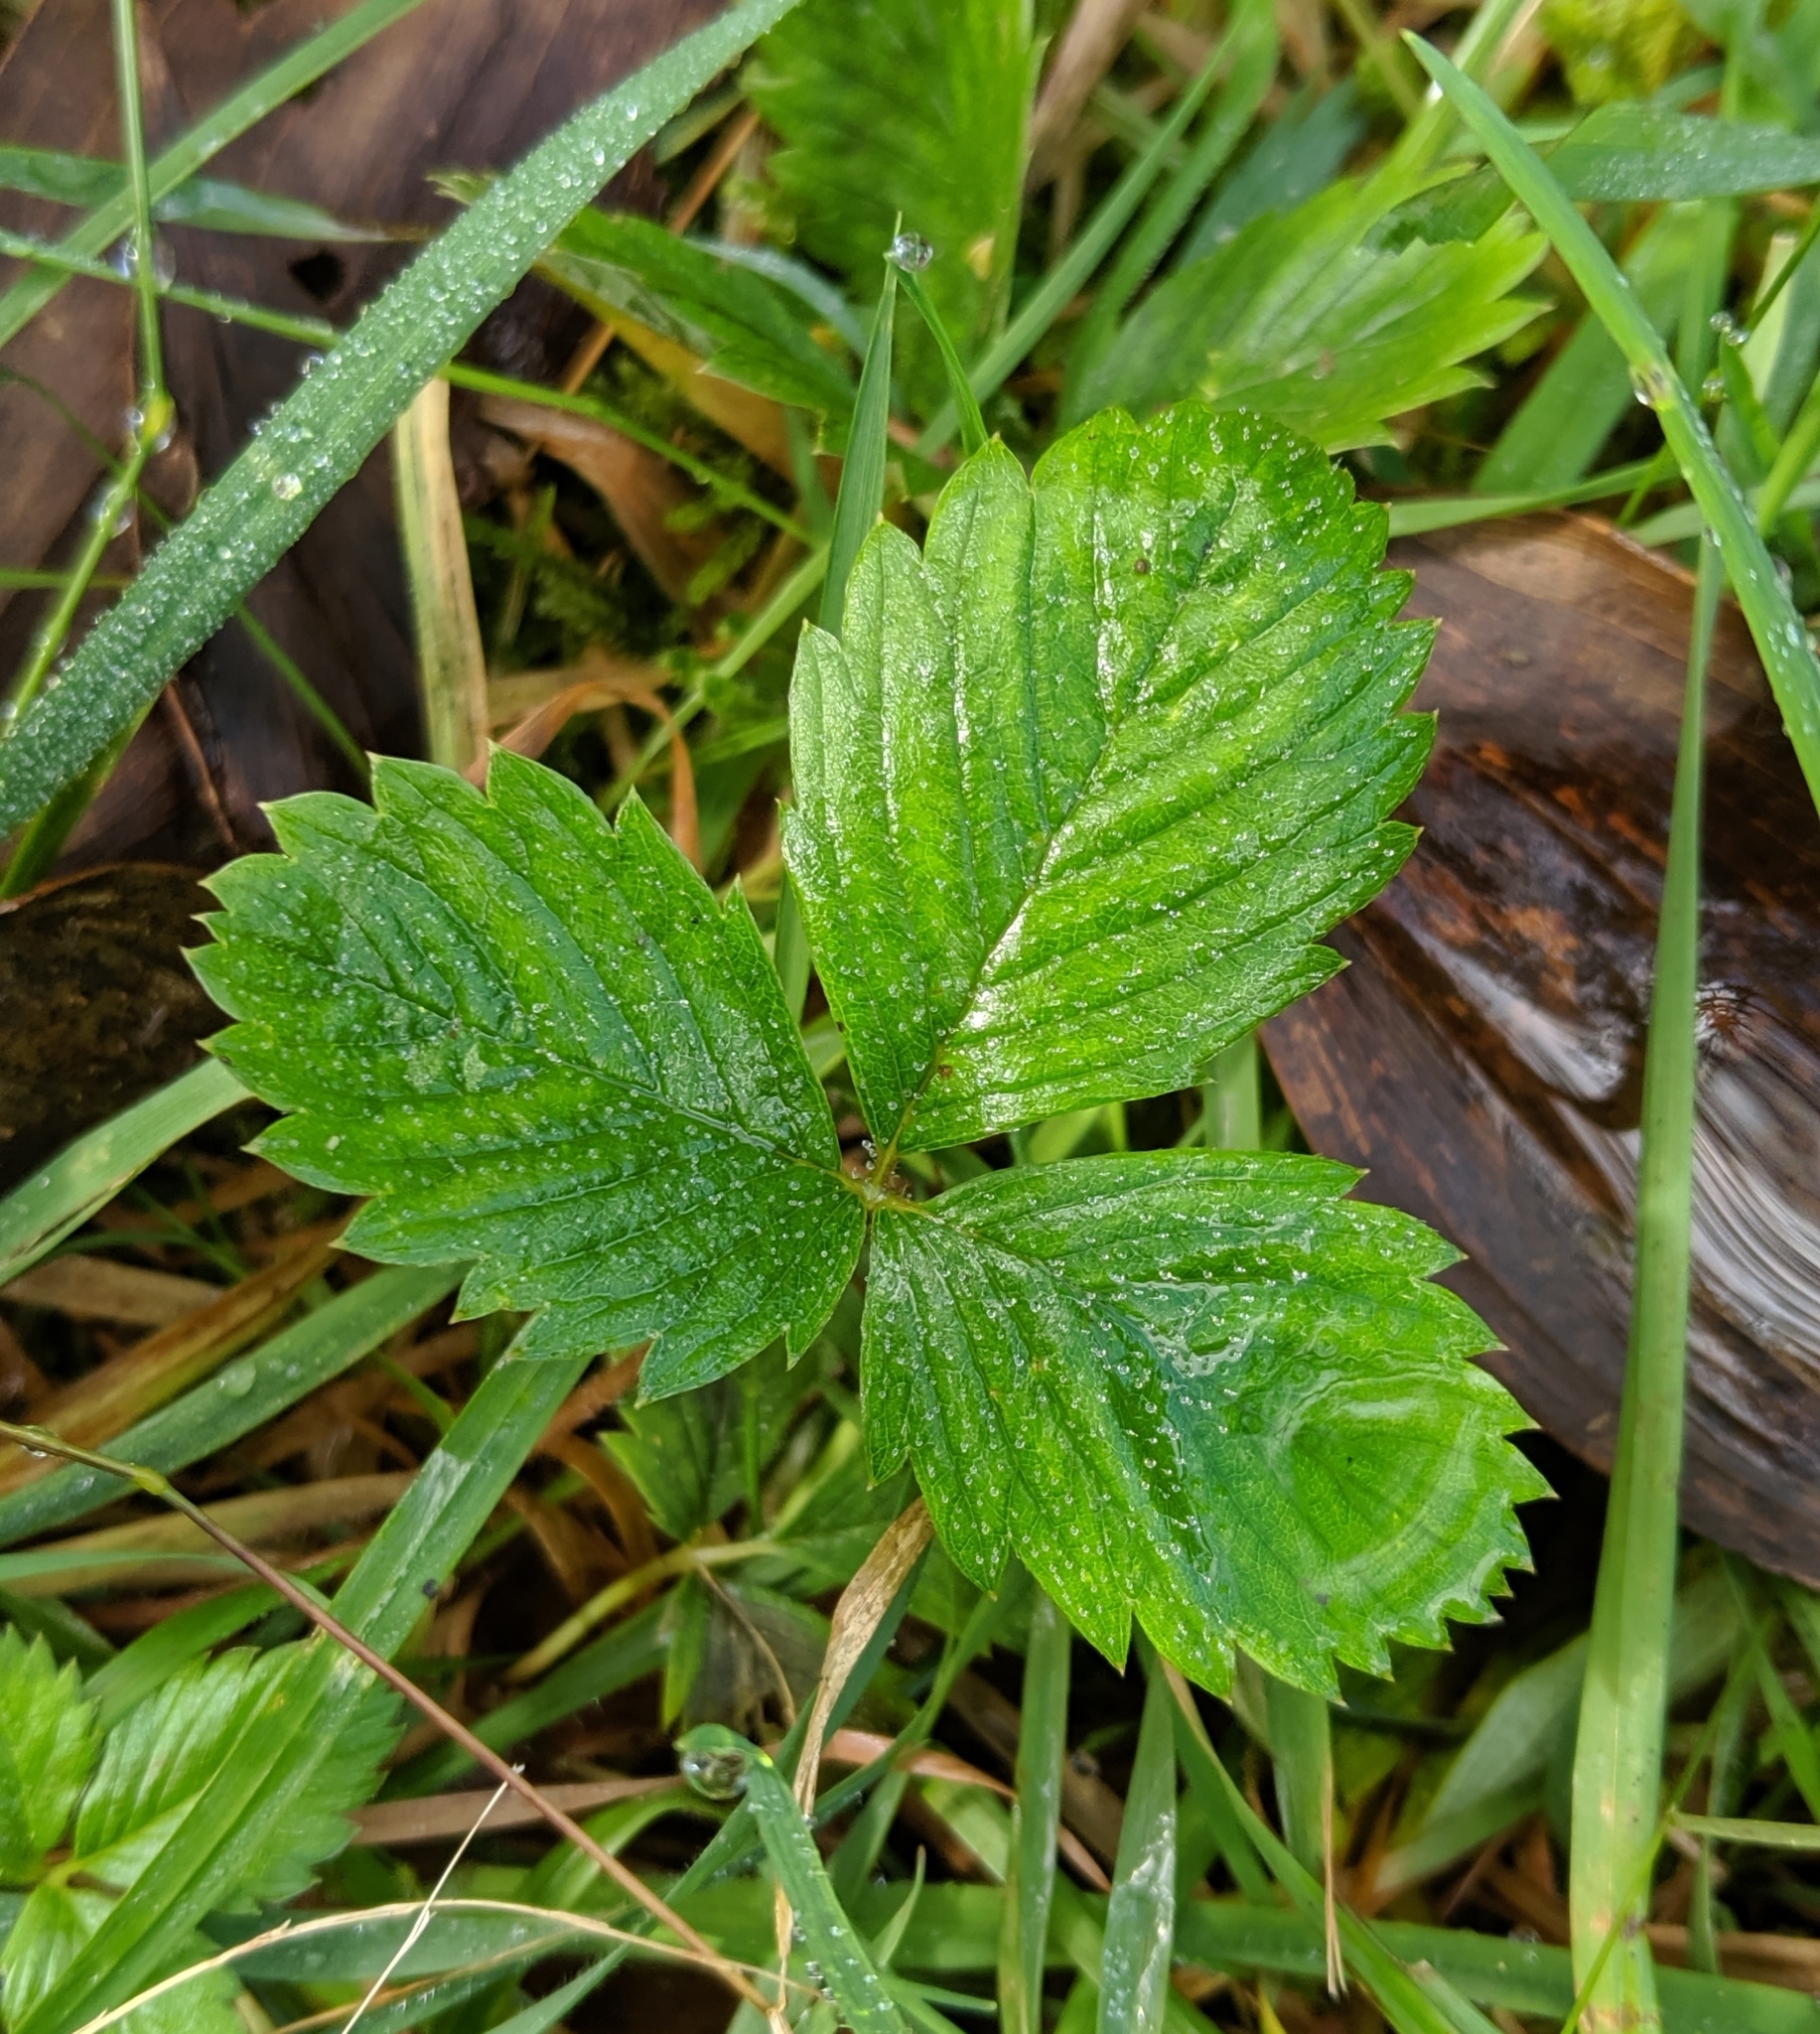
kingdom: Plantae
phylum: Tracheophyta
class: Magnoliopsida
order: Rosales
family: Rosaceae
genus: Fragaria
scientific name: Fragaria vesca
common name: Wild strawberry
